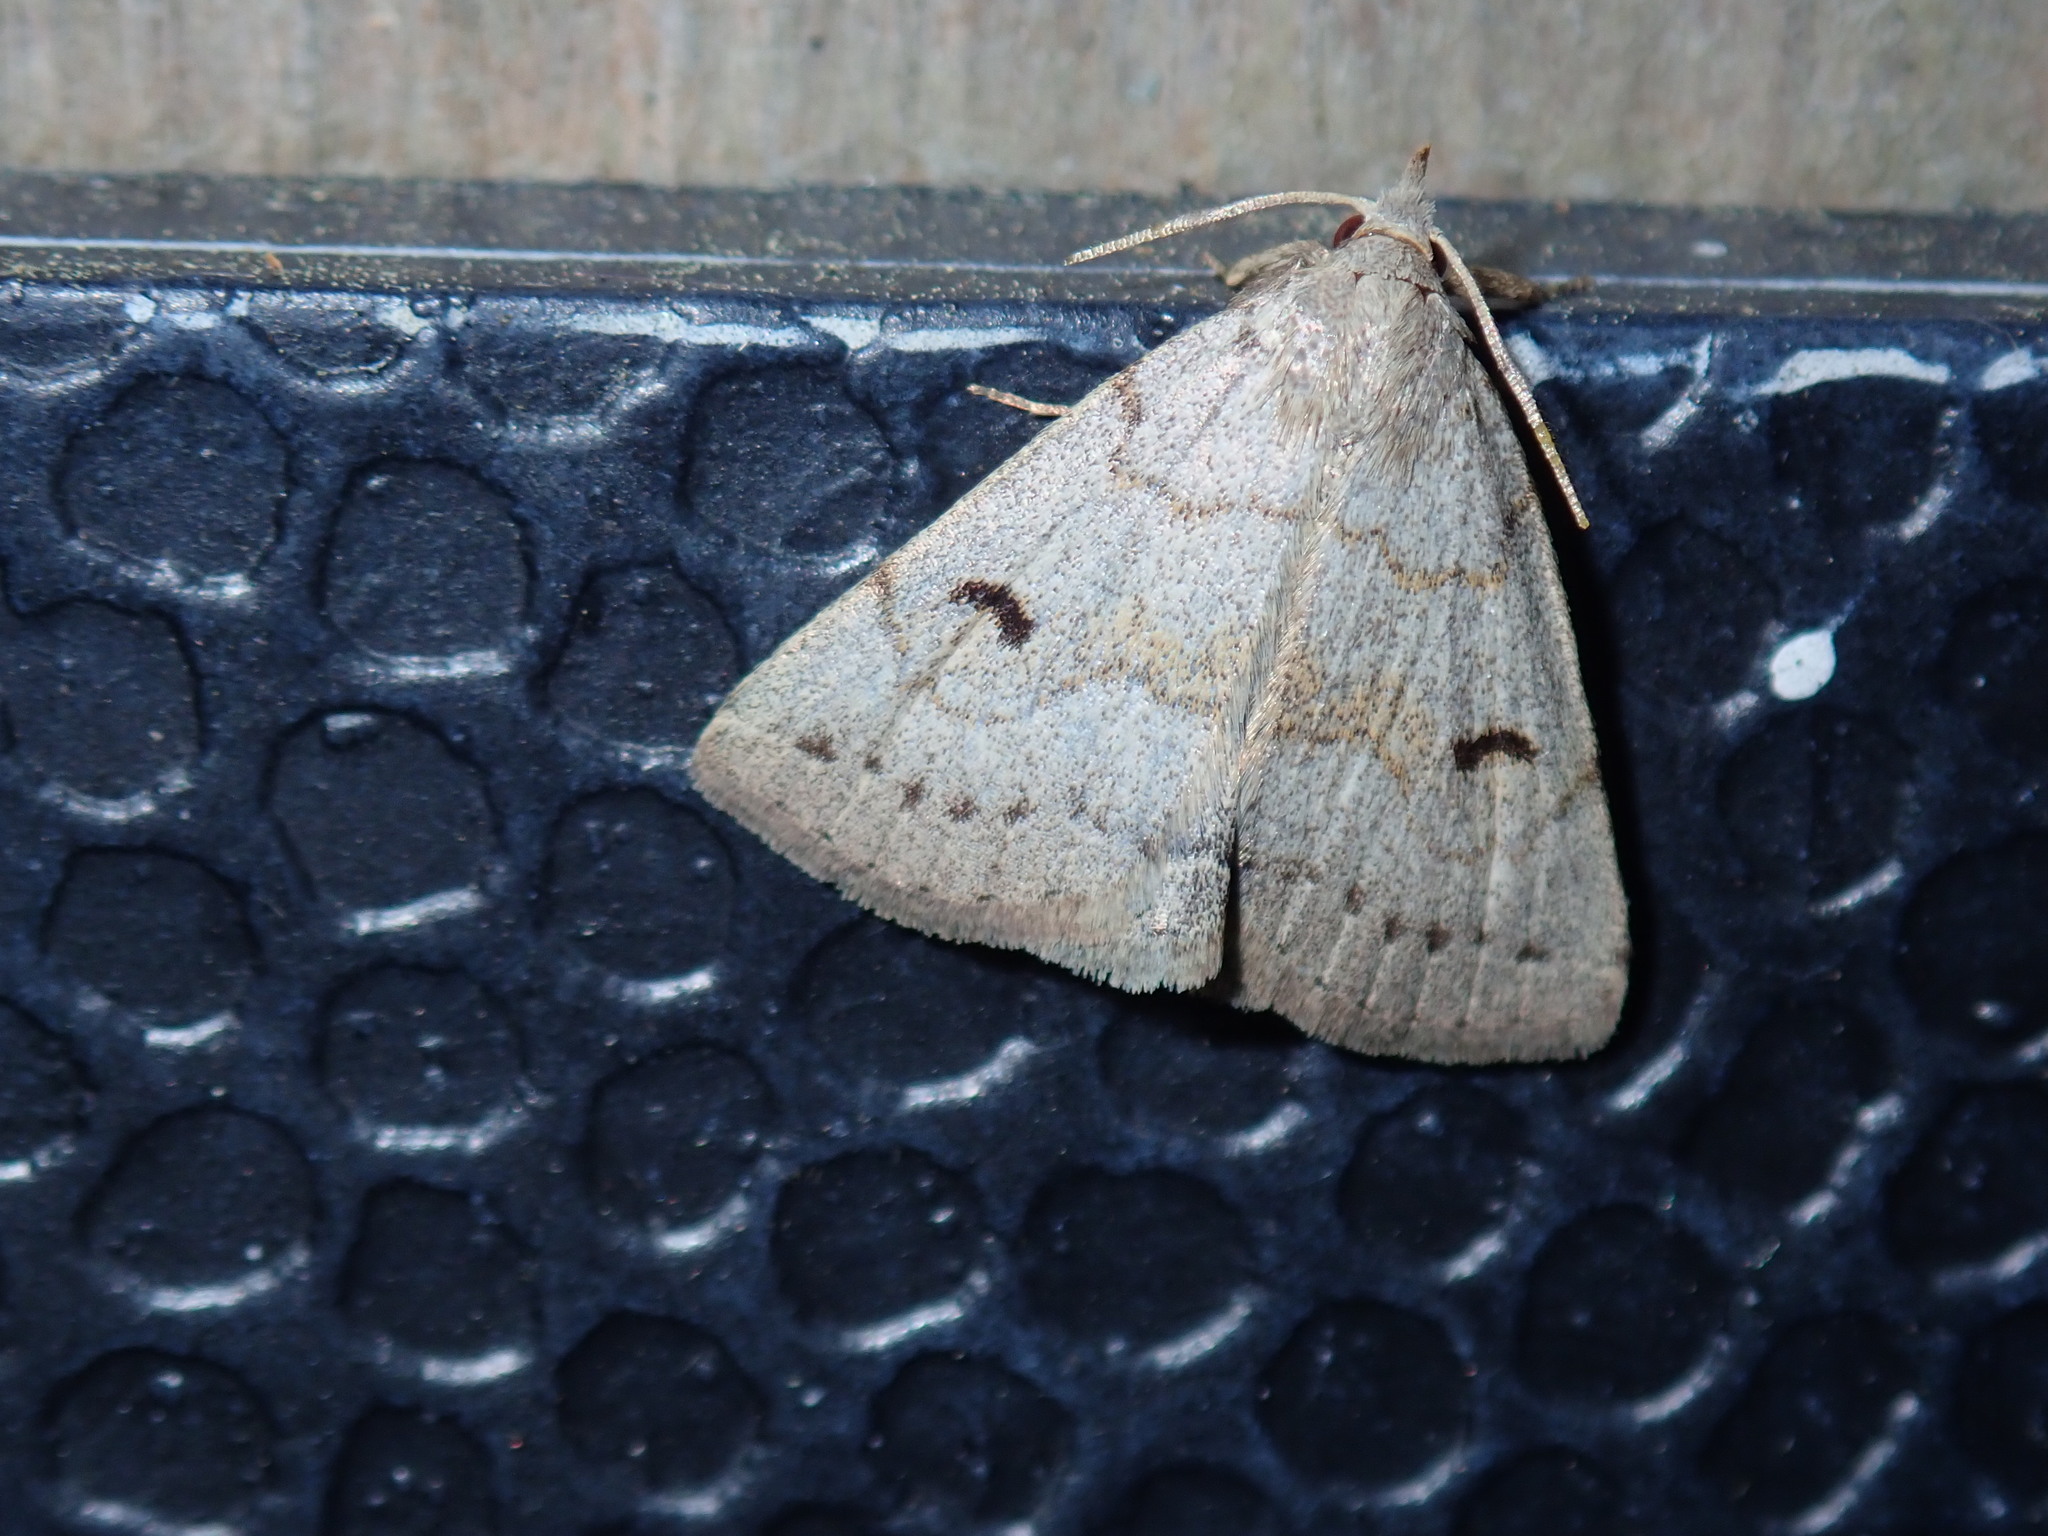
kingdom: Animalia
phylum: Arthropoda
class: Insecta
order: Lepidoptera
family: Erebidae
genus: Macrochilo
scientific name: Macrochilo morbidalis
